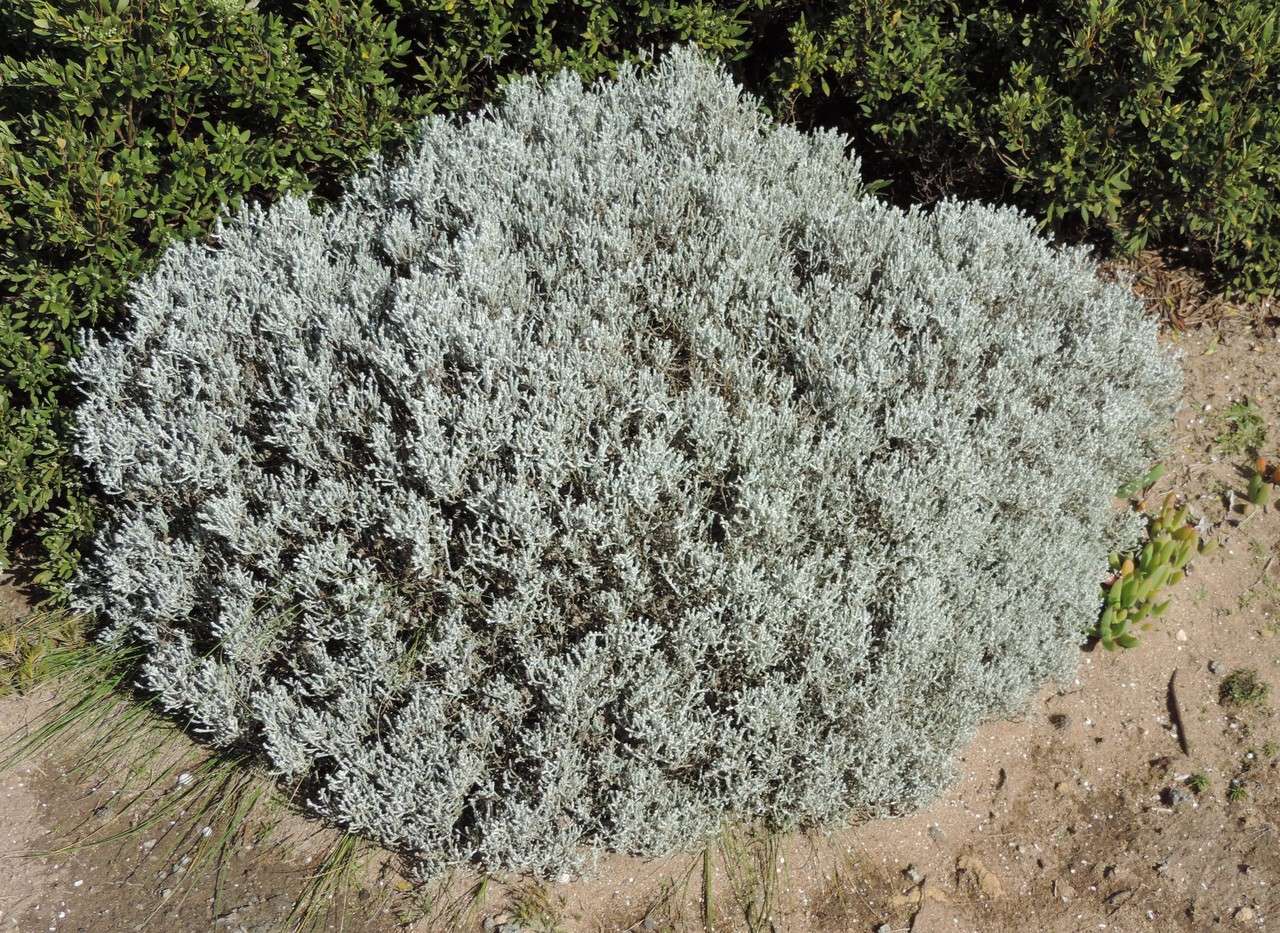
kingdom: Plantae
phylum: Tracheophyta
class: Magnoliopsida
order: Asterales
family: Asteraceae
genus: Calocephalus
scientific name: Calocephalus brownii
